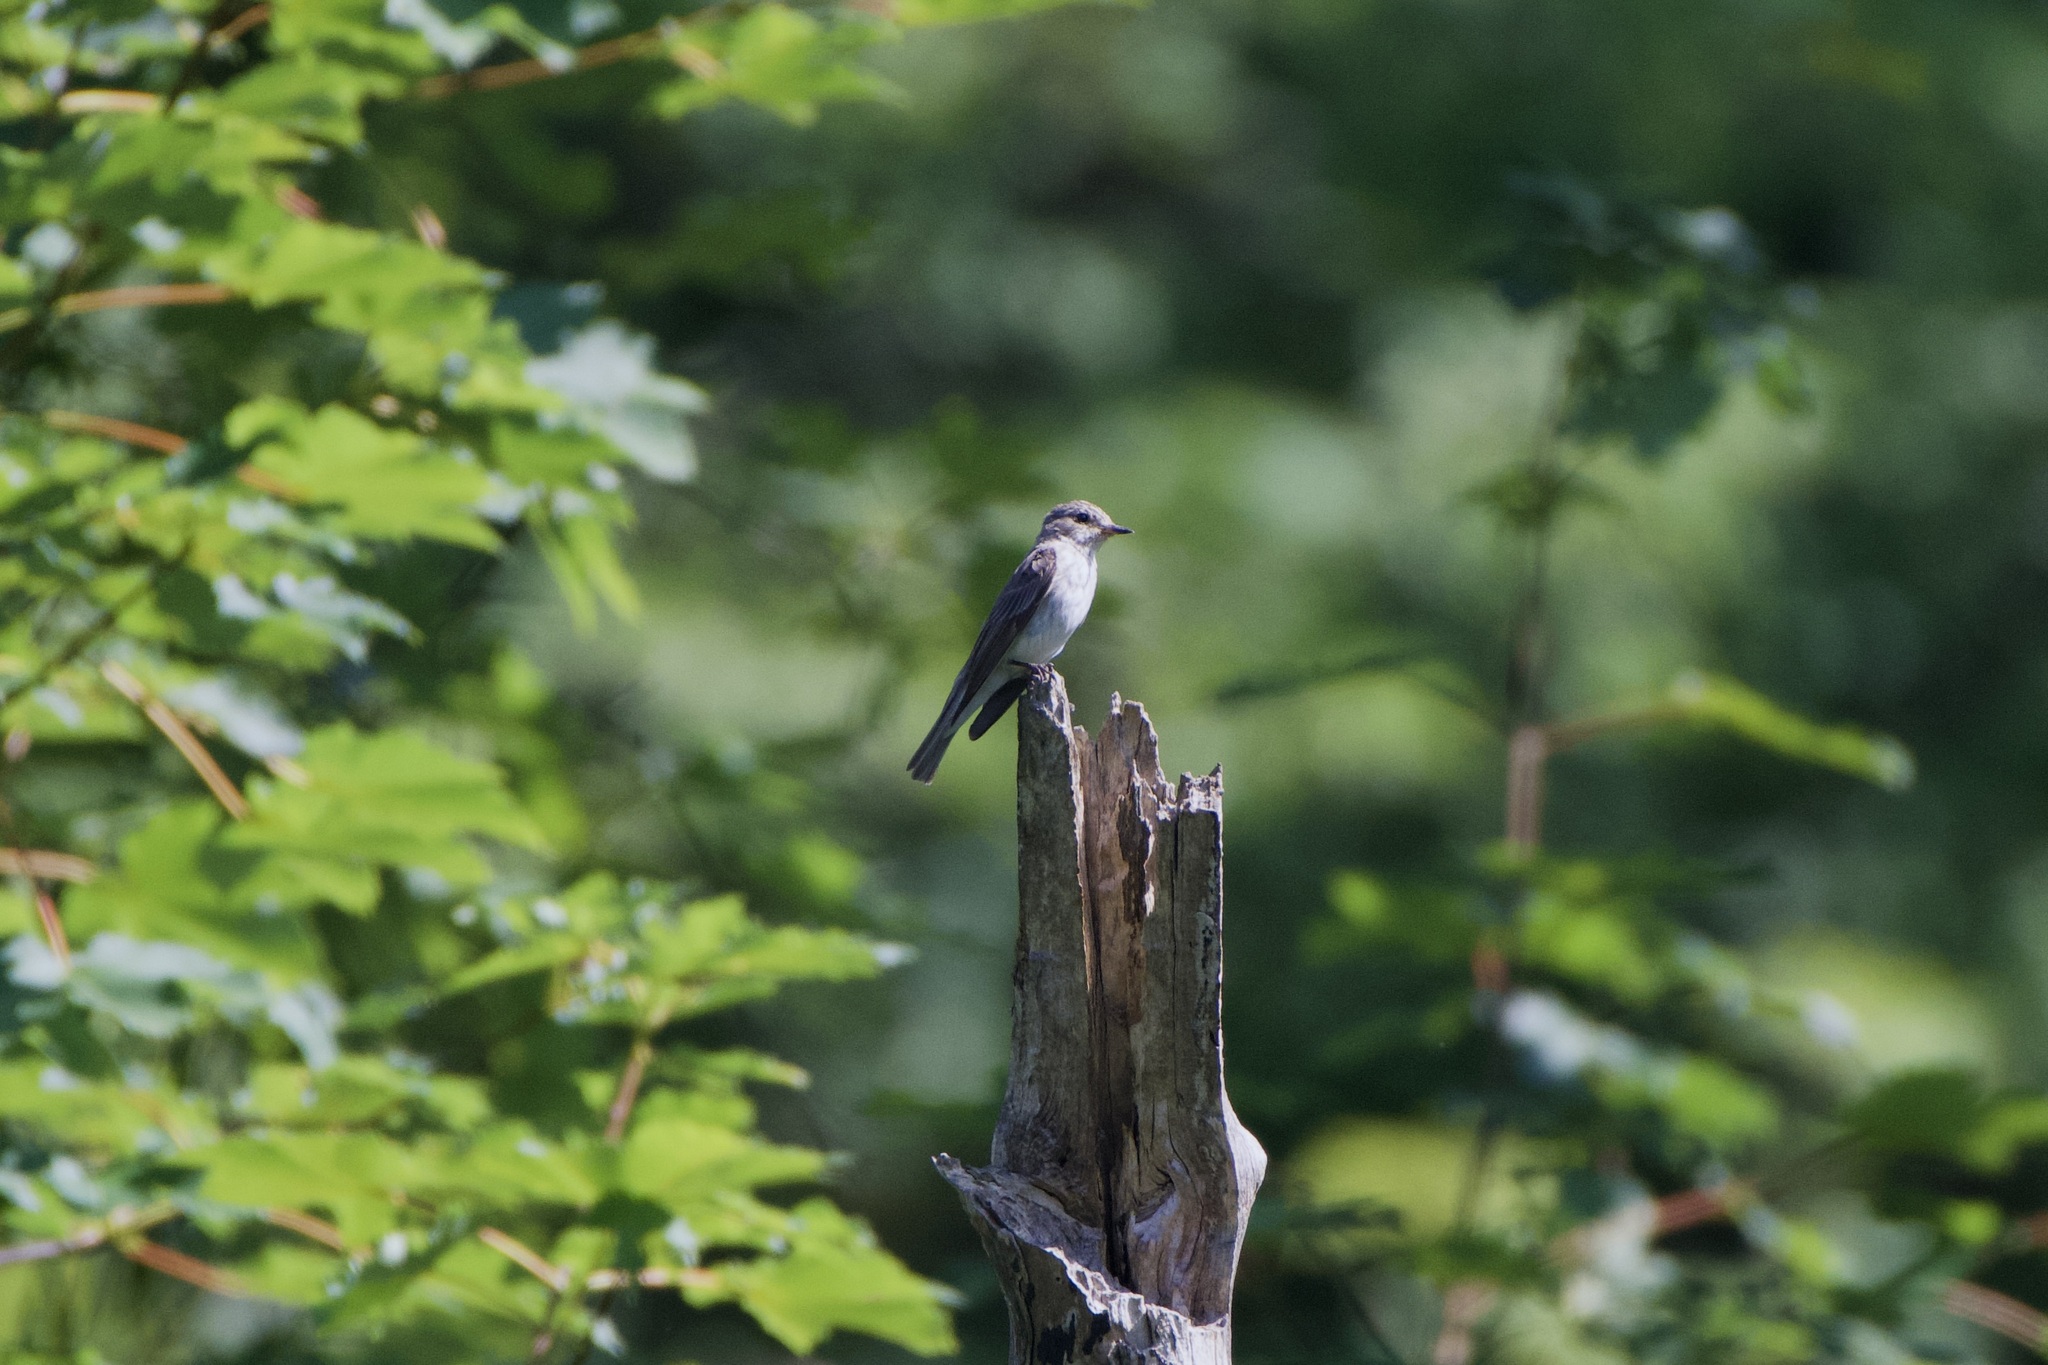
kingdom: Animalia
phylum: Chordata
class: Aves
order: Passeriformes
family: Muscicapidae
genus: Muscicapa
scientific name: Muscicapa striata
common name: Spotted flycatcher
